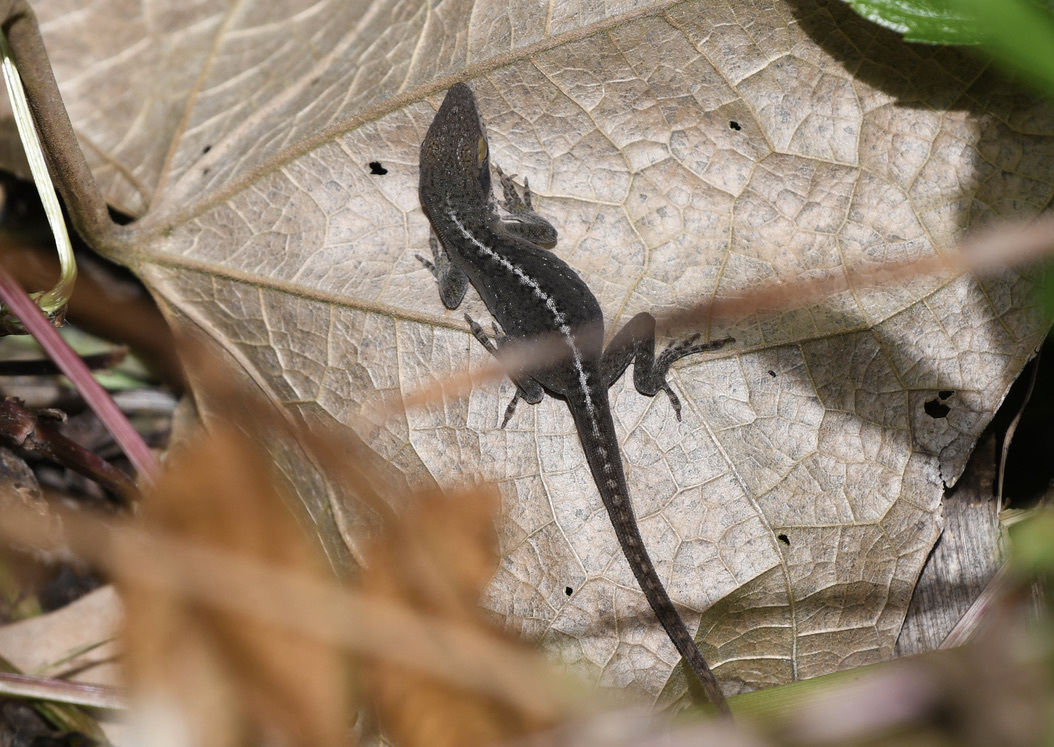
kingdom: Animalia
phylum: Chordata
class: Squamata
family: Dactyloidae
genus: Anolis
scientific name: Anolis carolinensis
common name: Green anole
